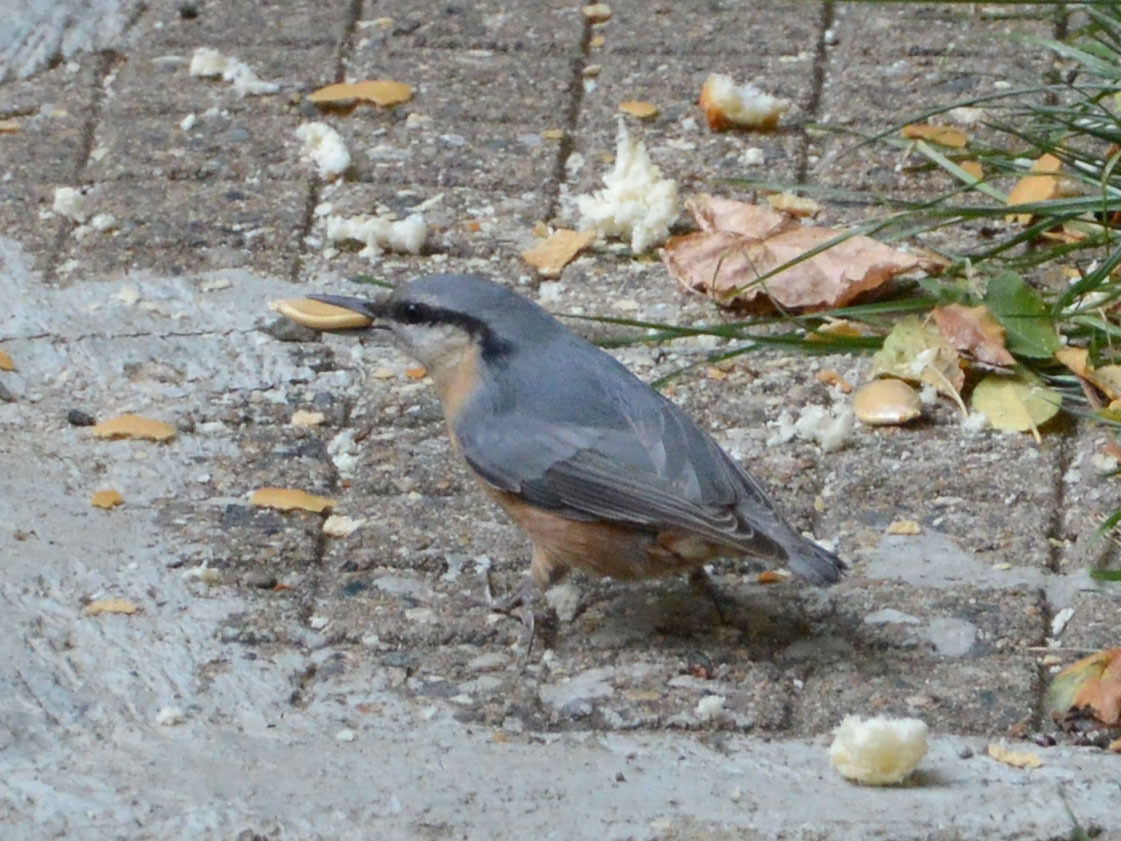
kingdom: Animalia
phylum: Chordata
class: Aves
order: Passeriformes
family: Sittidae
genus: Sitta
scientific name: Sitta europaea
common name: Eurasian nuthatch
